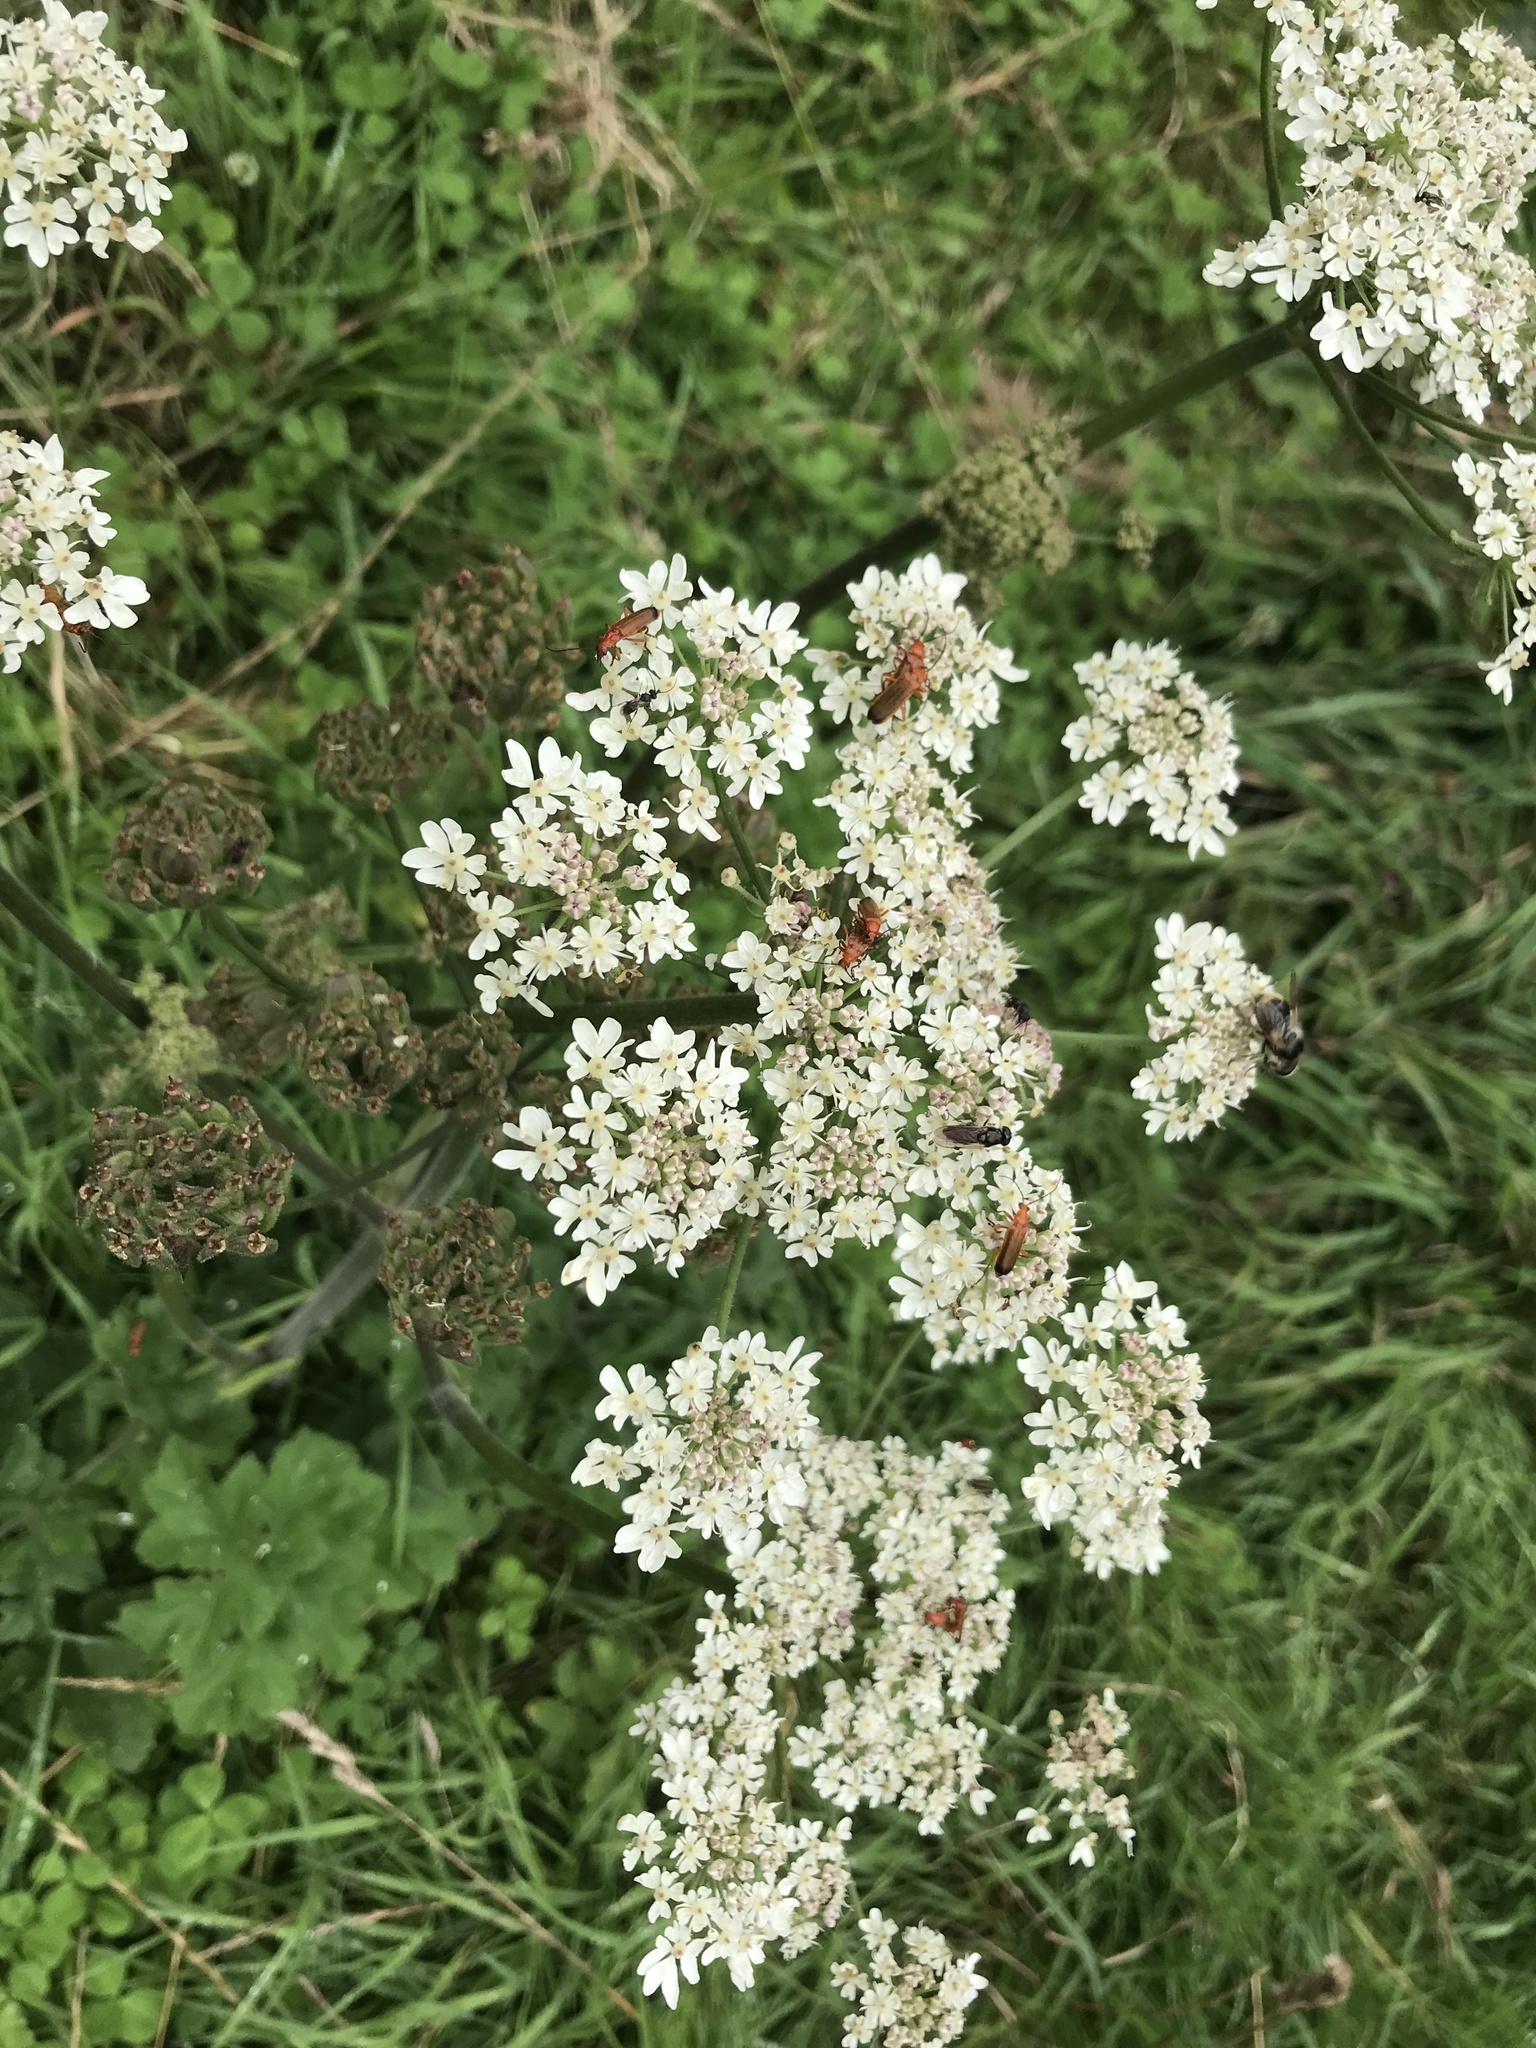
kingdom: Animalia
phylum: Arthropoda
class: Insecta
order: Coleoptera
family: Cantharidae
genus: Rhagonycha
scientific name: Rhagonycha fulva
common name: Common red soldier beetle
